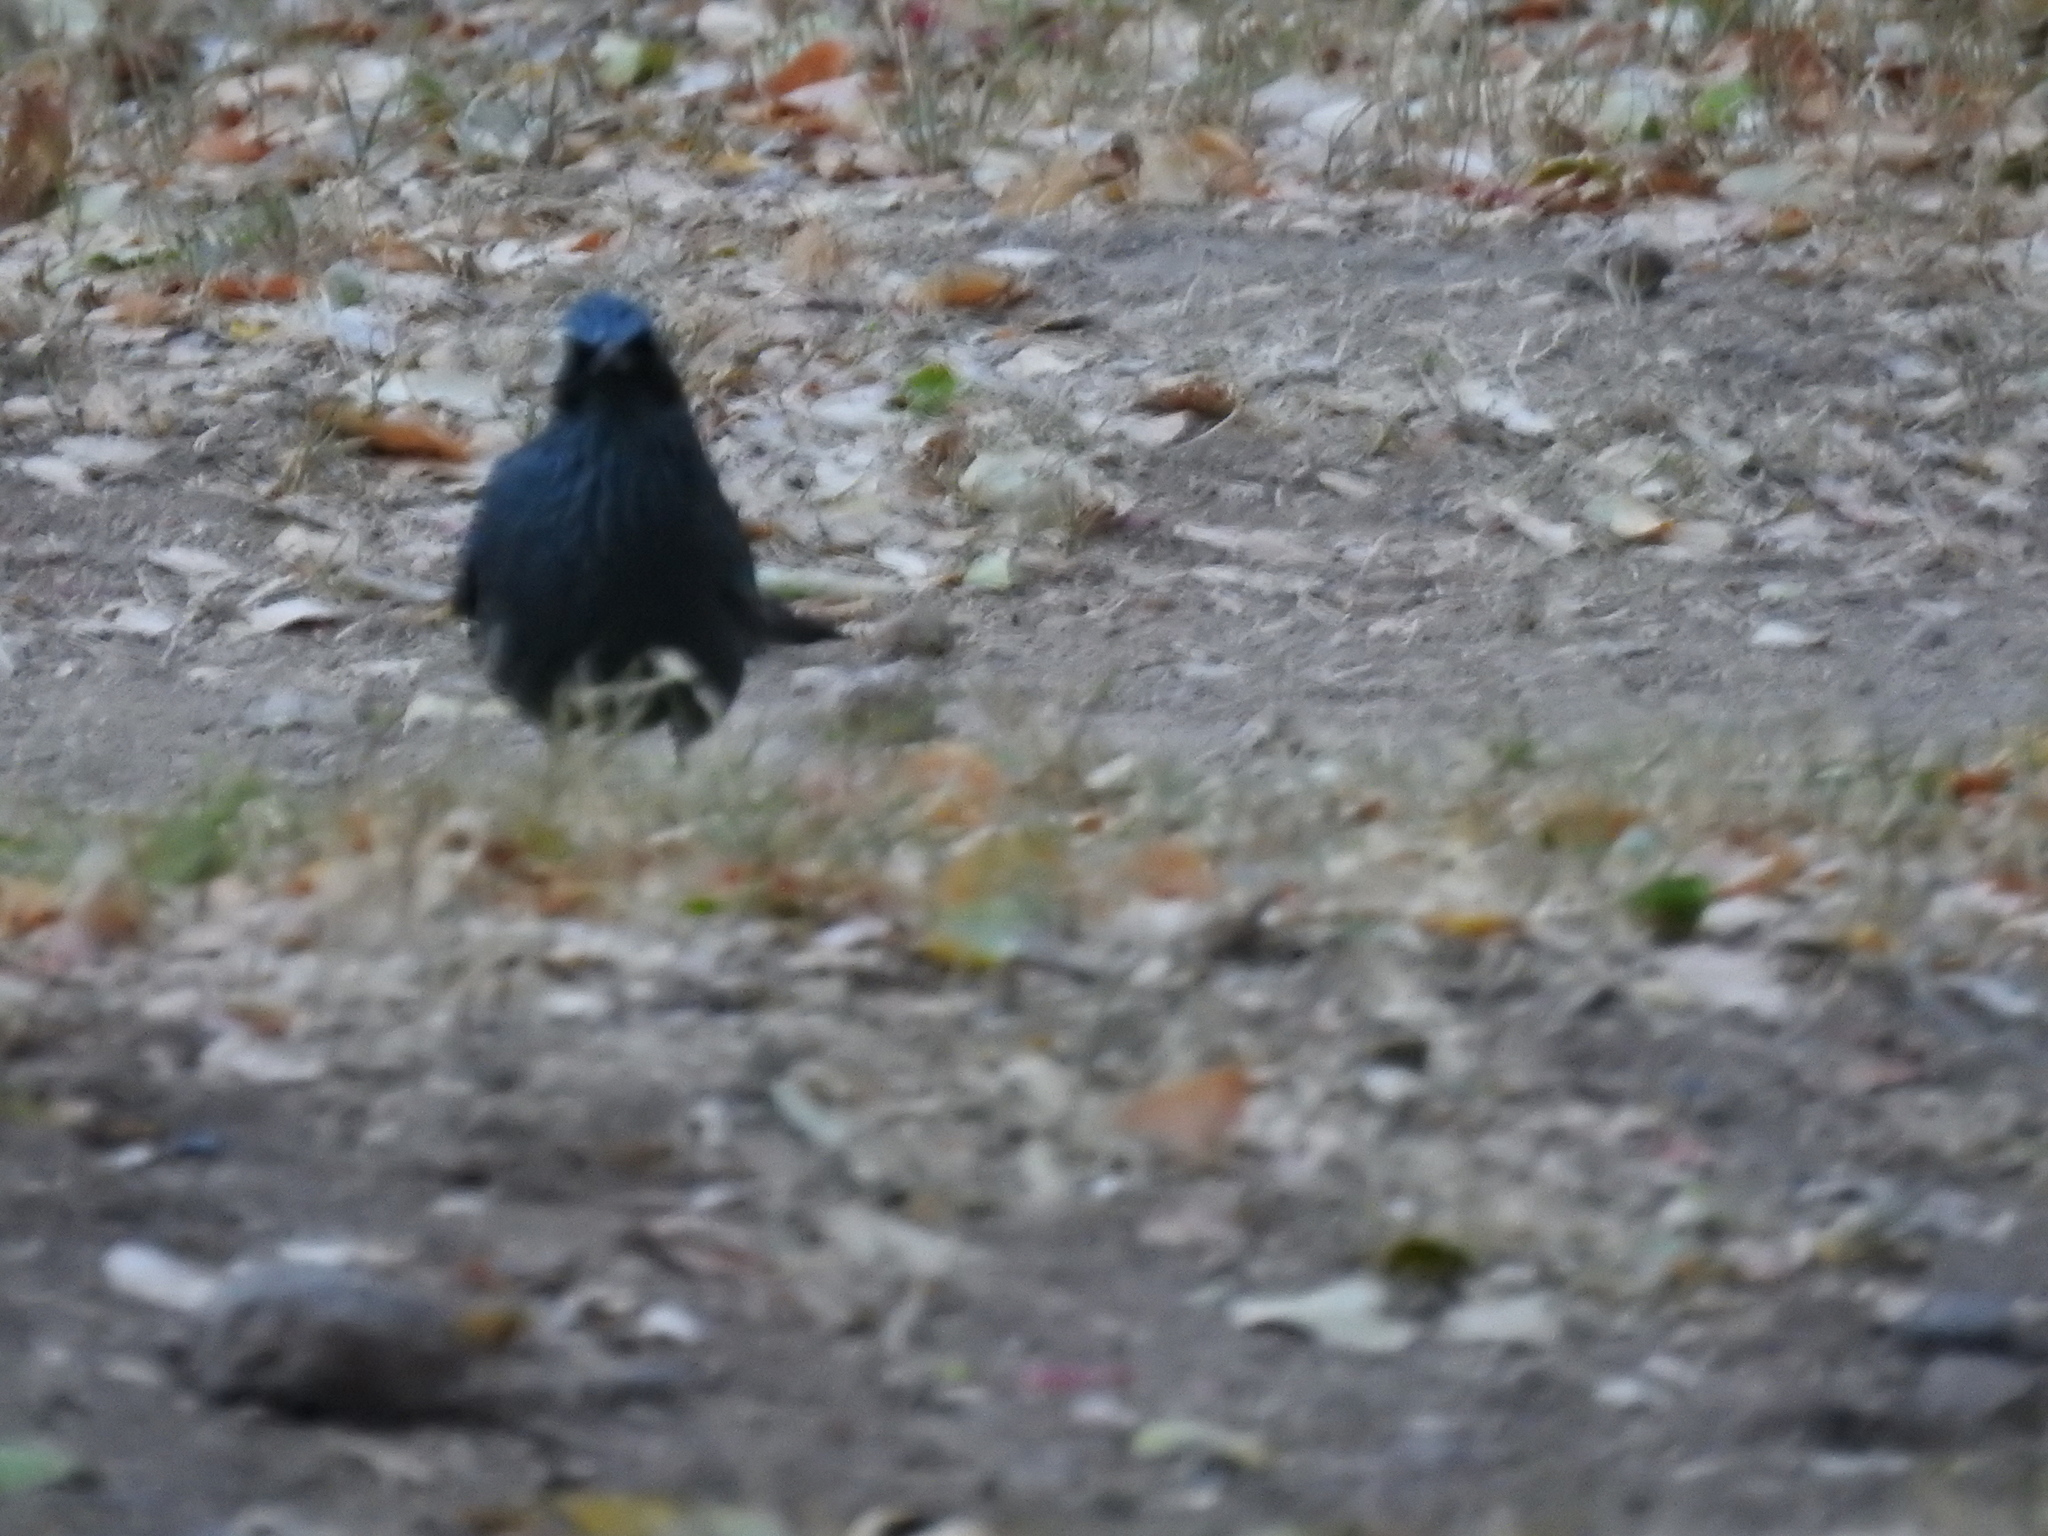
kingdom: Animalia
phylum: Chordata
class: Aves
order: Passeriformes
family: Mimidae
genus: Melanotis
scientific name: Melanotis caerulescens
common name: Blue mockingbird
